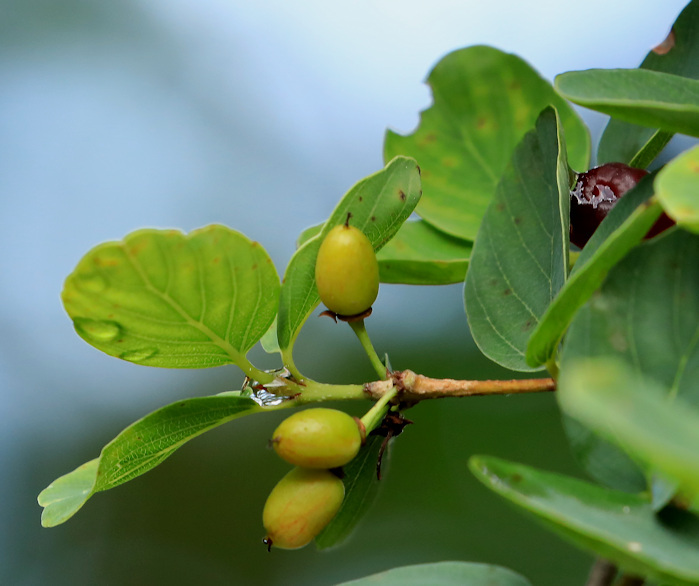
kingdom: Plantae
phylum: Tracheophyta
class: Magnoliopsida
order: Rosales
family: Rhamnaceae
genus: Phyllogeiton
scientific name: Phyllogeiton zeyheri
